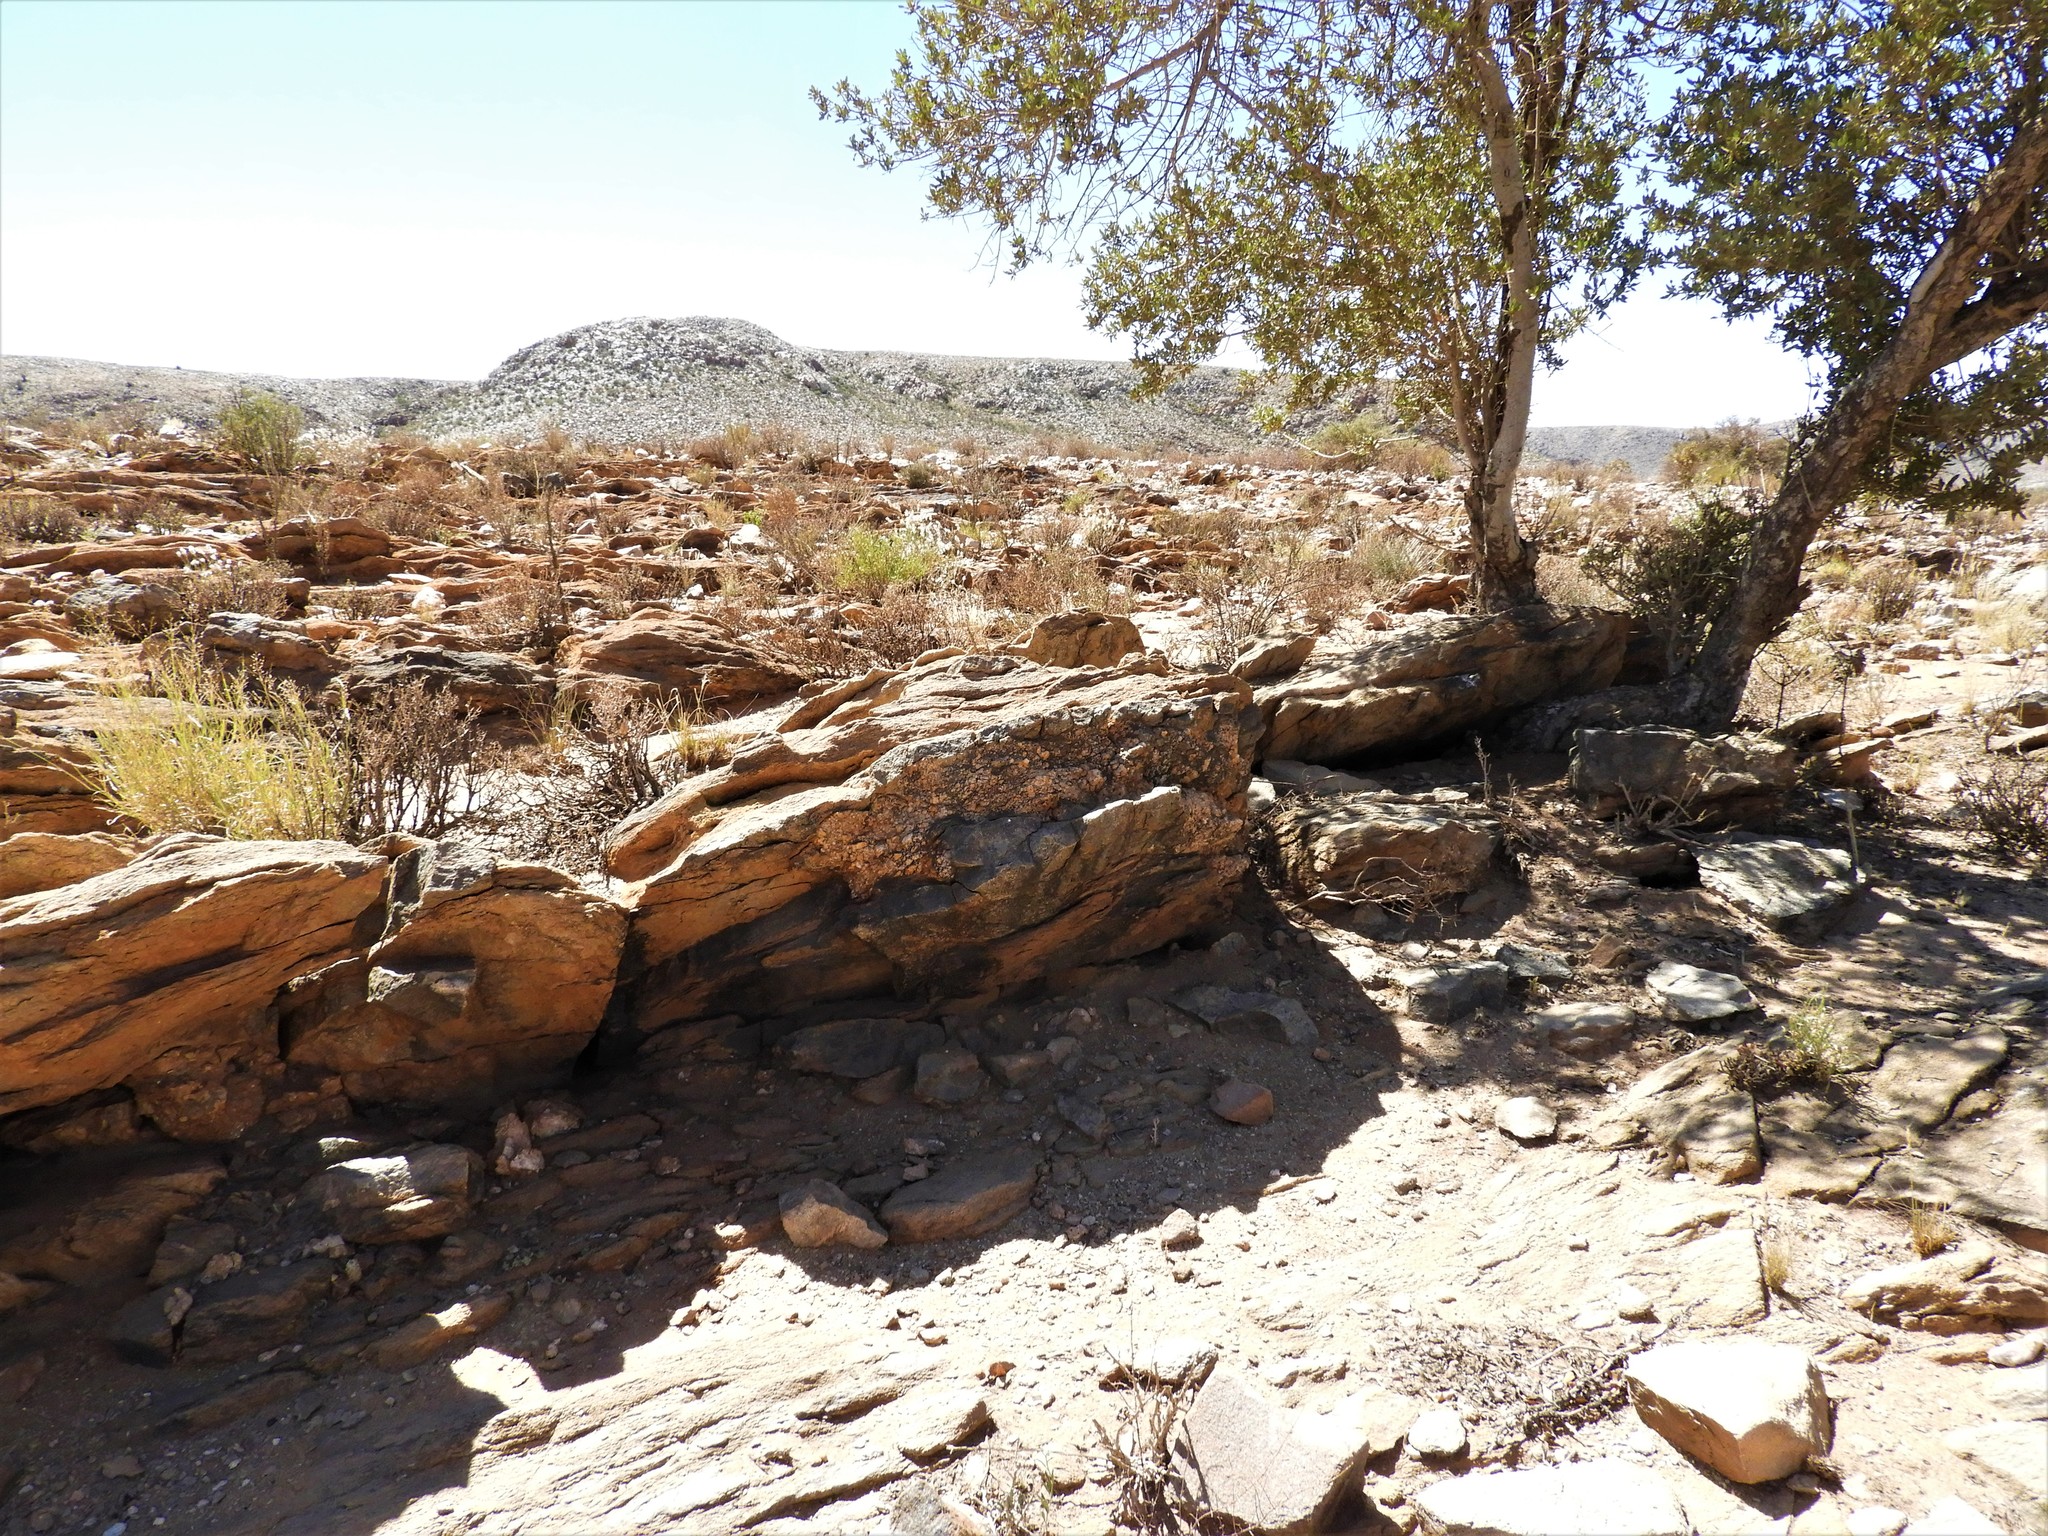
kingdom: Animalia
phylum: Chordata
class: Squamata
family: Gekkonidae
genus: Chondrodactylus
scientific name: Chondrodactylus bibronii
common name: Bibron's gecko
